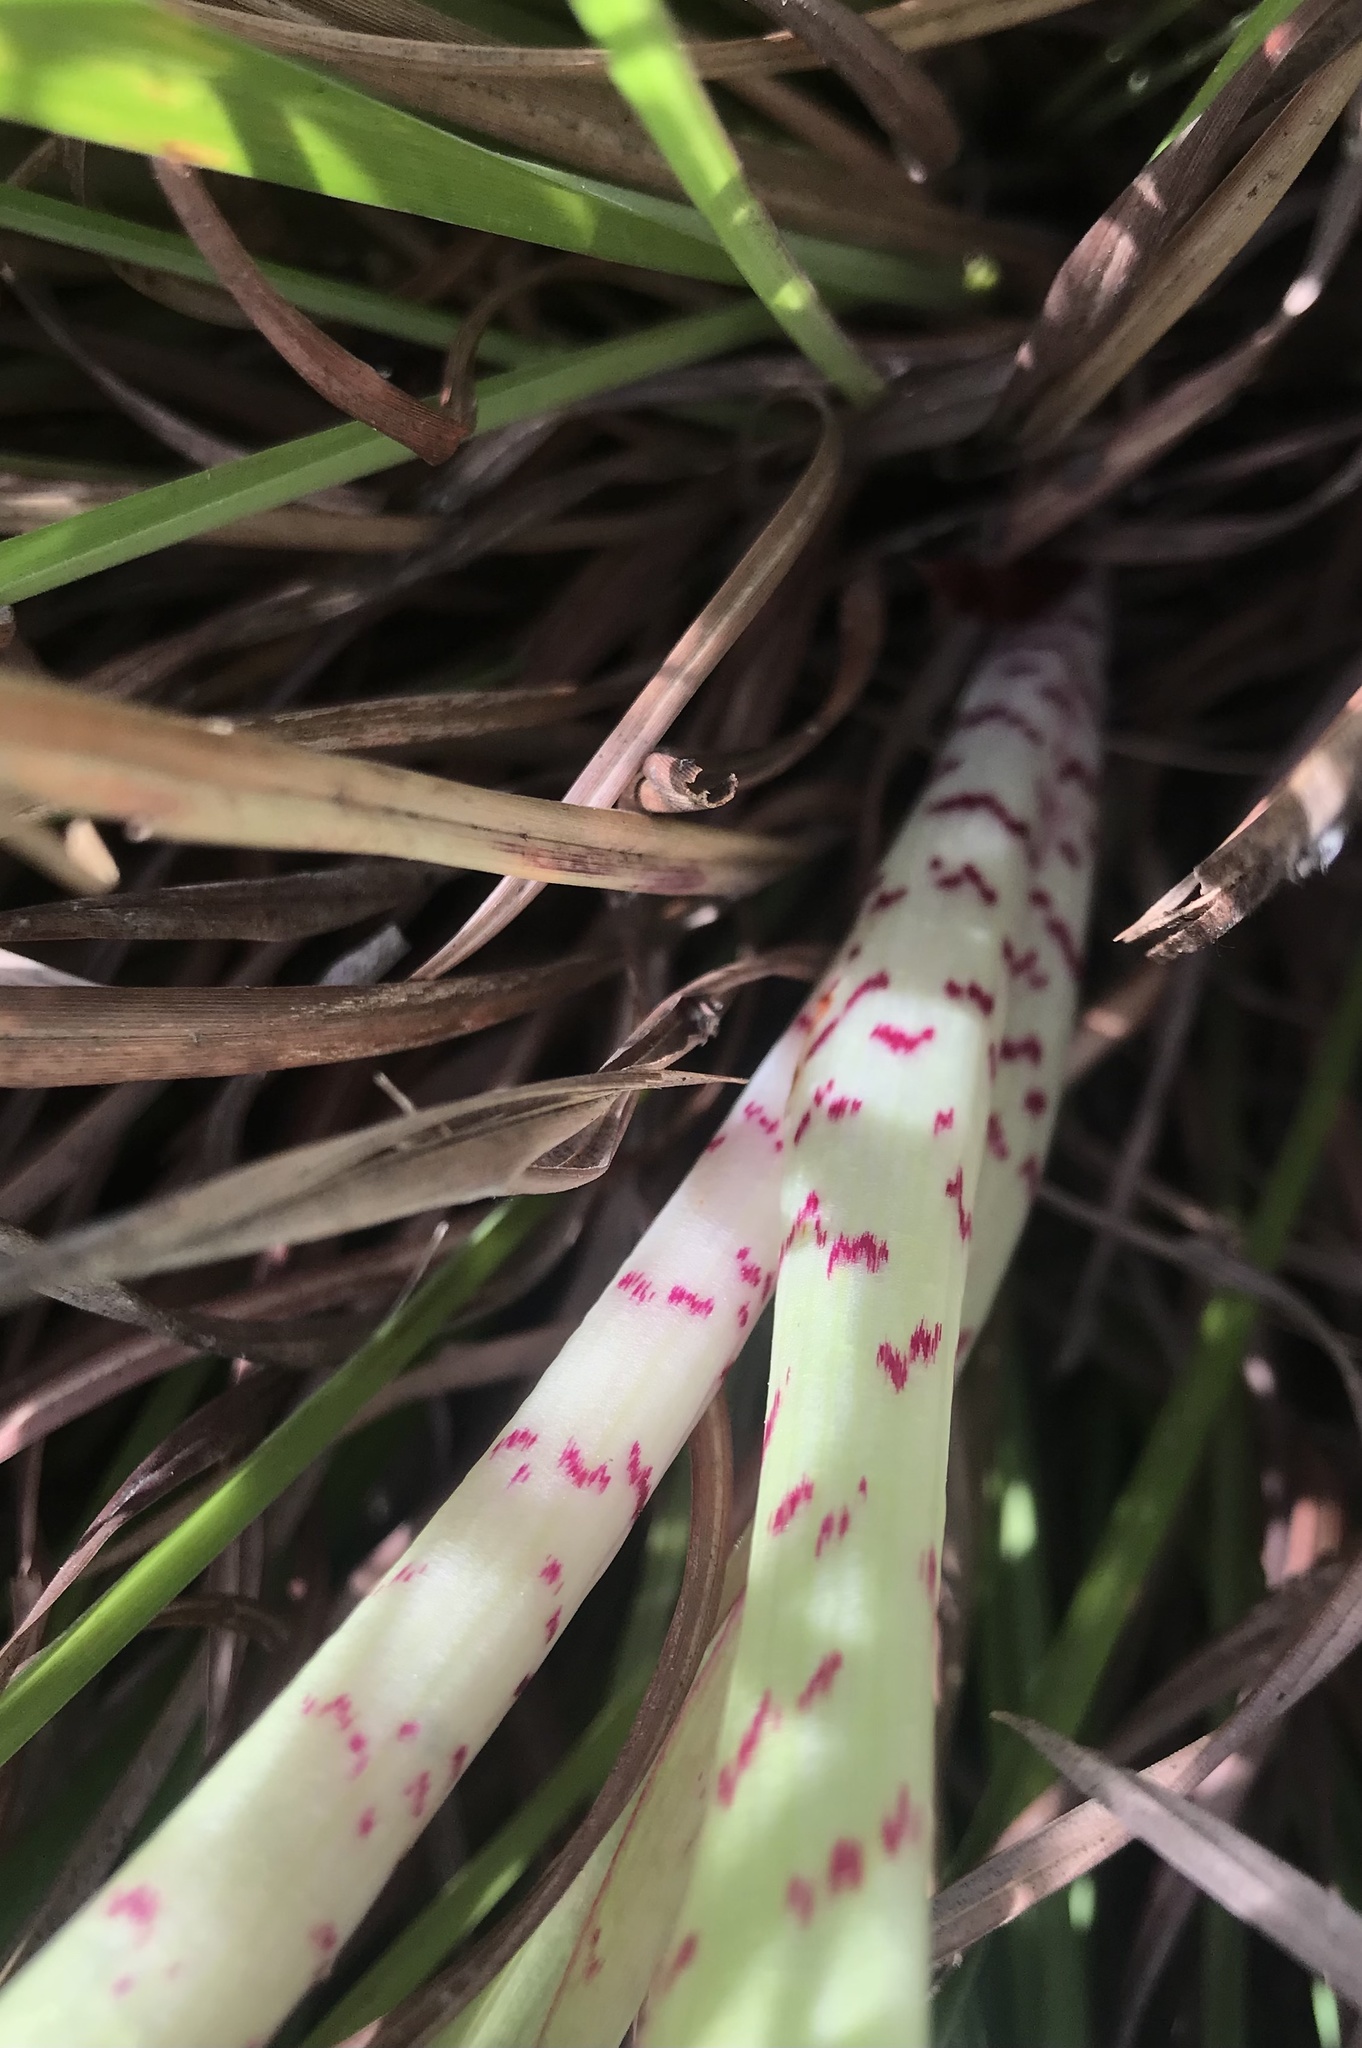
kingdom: Plantae
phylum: Tracheophyta
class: Liliopsida
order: Asparagales
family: Orchidaceae
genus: Disa
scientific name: Disa cornuta
